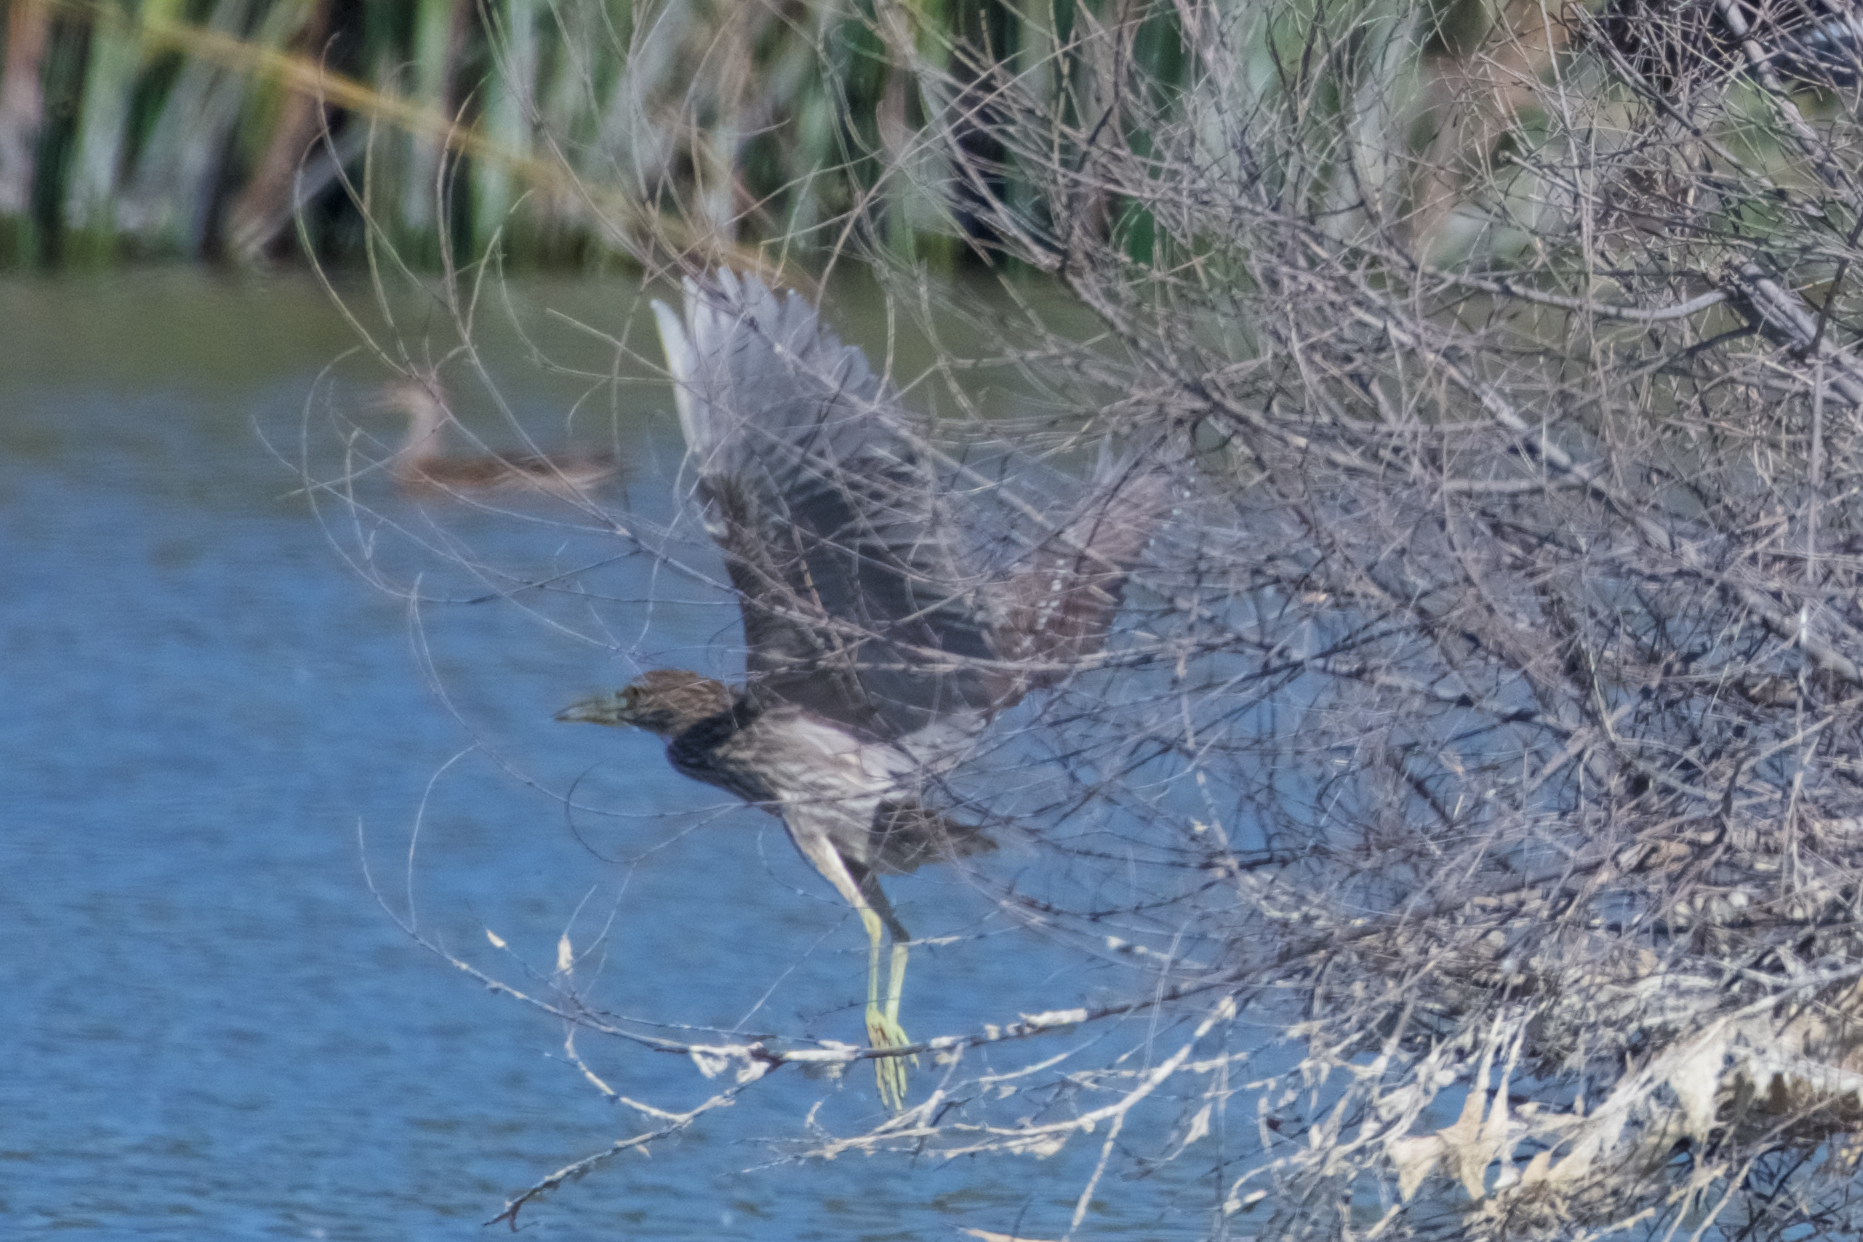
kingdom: Animalia
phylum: Chordata
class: Aves
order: Pelecaniformes
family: Ardeidae
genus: Nycticorax
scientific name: Nycticorax nycticorax
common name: Black-crowned night heron
